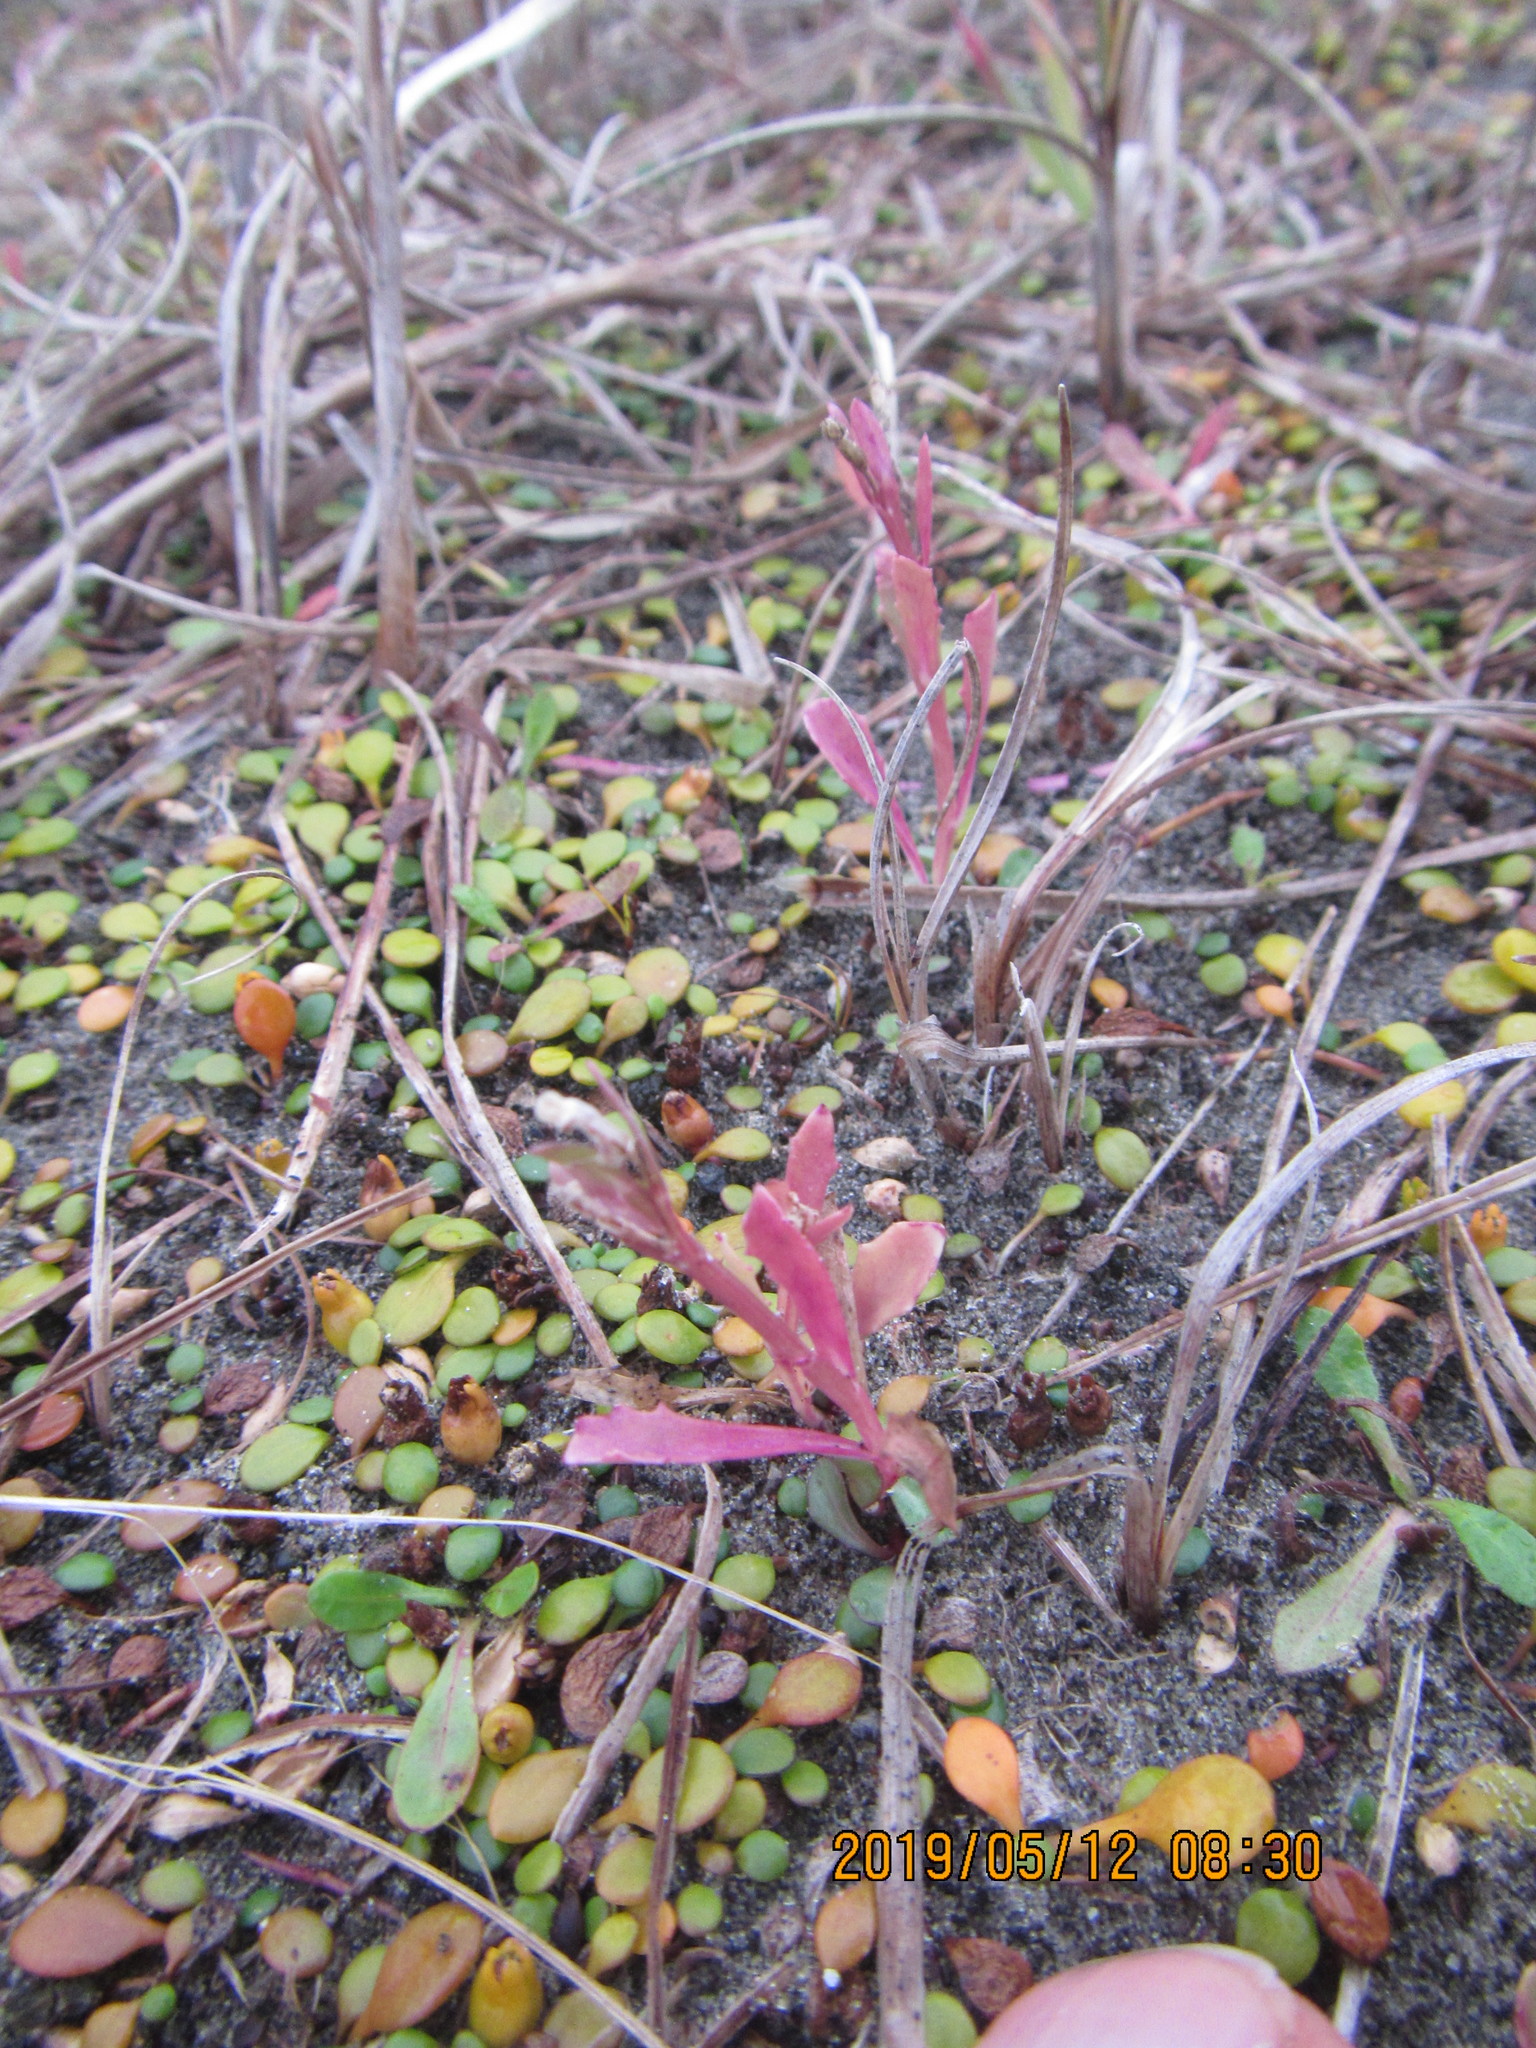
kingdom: Plantae
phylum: Tracheophyta
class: Magnoliopsida
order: Asterales
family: Campanulaceae
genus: Lobelia
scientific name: Lobelia anceps
